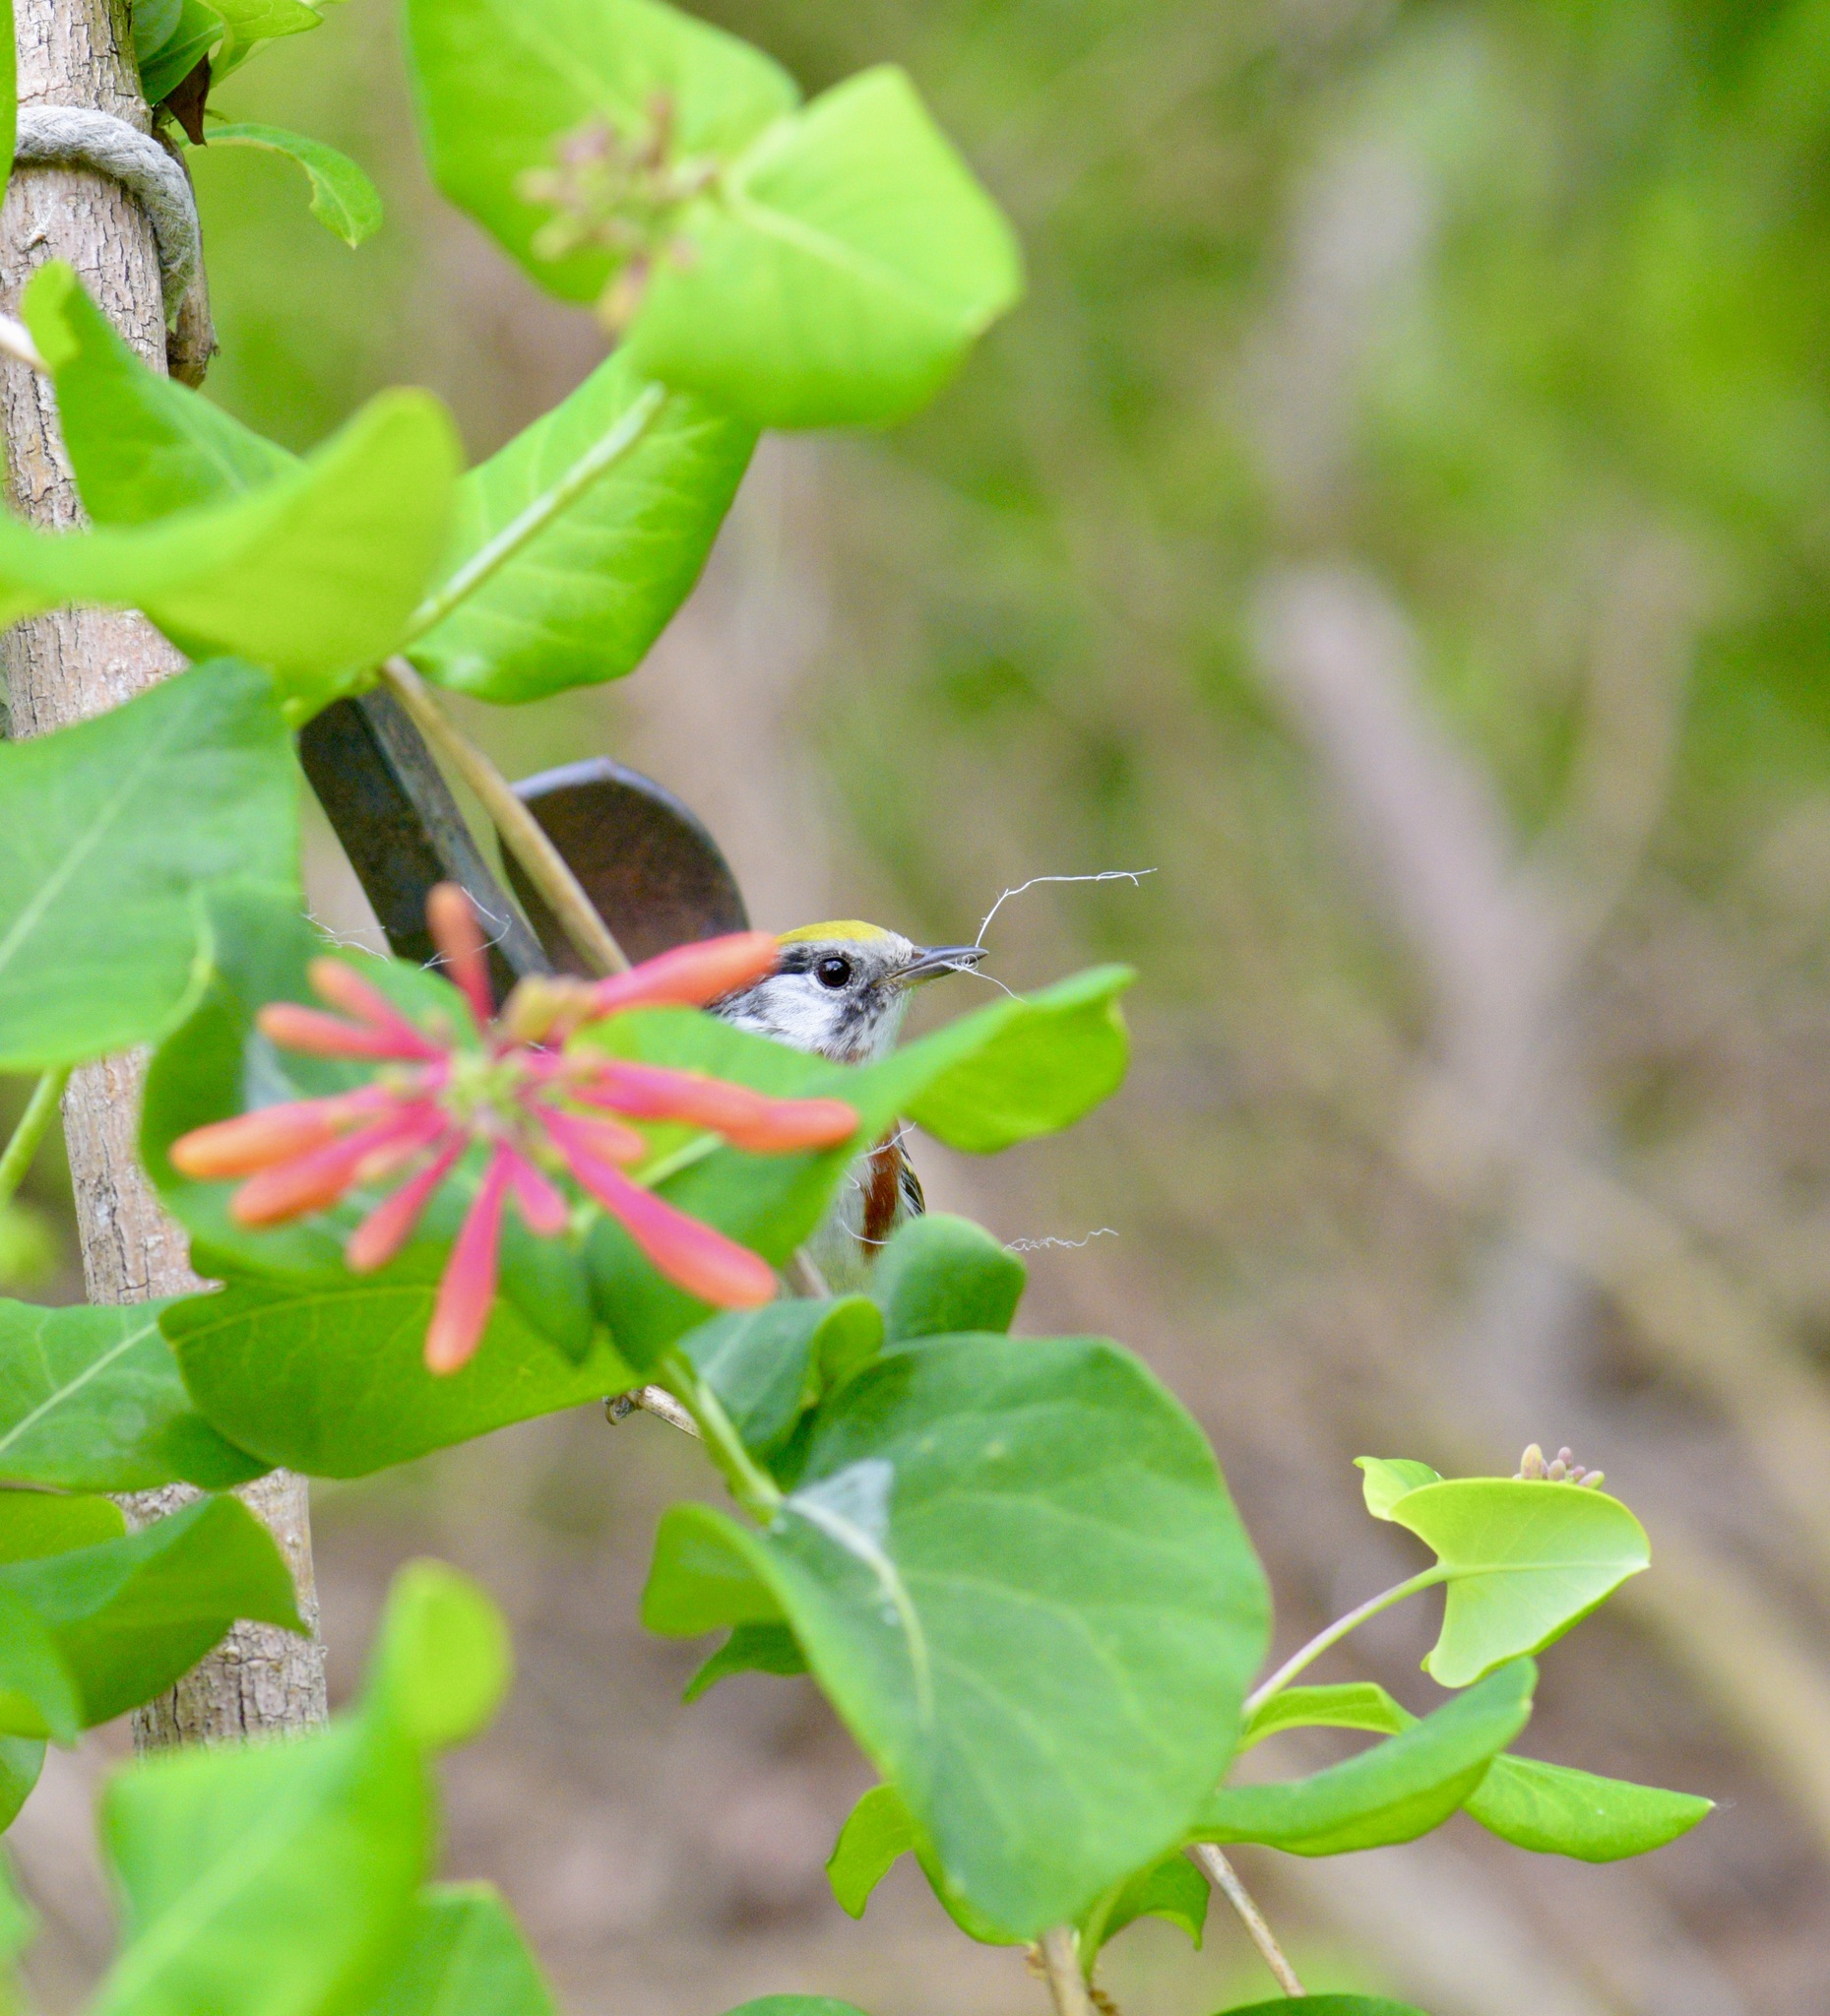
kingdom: Animalia
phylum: Chordata
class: Aves
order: Passeriformes
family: Parulidae
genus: Setophaga
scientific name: Setophaga pensylvanica
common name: Chestnut-sided warbler
